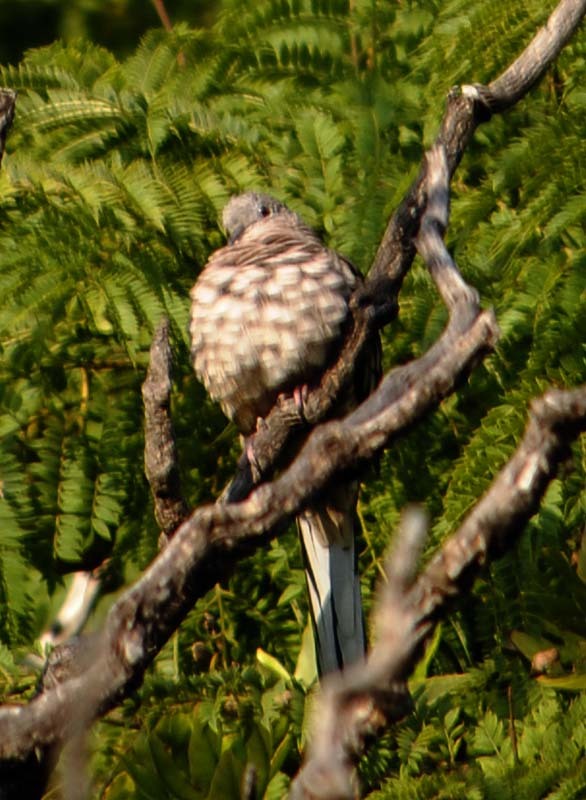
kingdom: Animalia
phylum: Chordata
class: Aves
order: Columbiformes
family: Columbidae
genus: Columbina
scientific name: Columbina inca
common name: Inca dove
